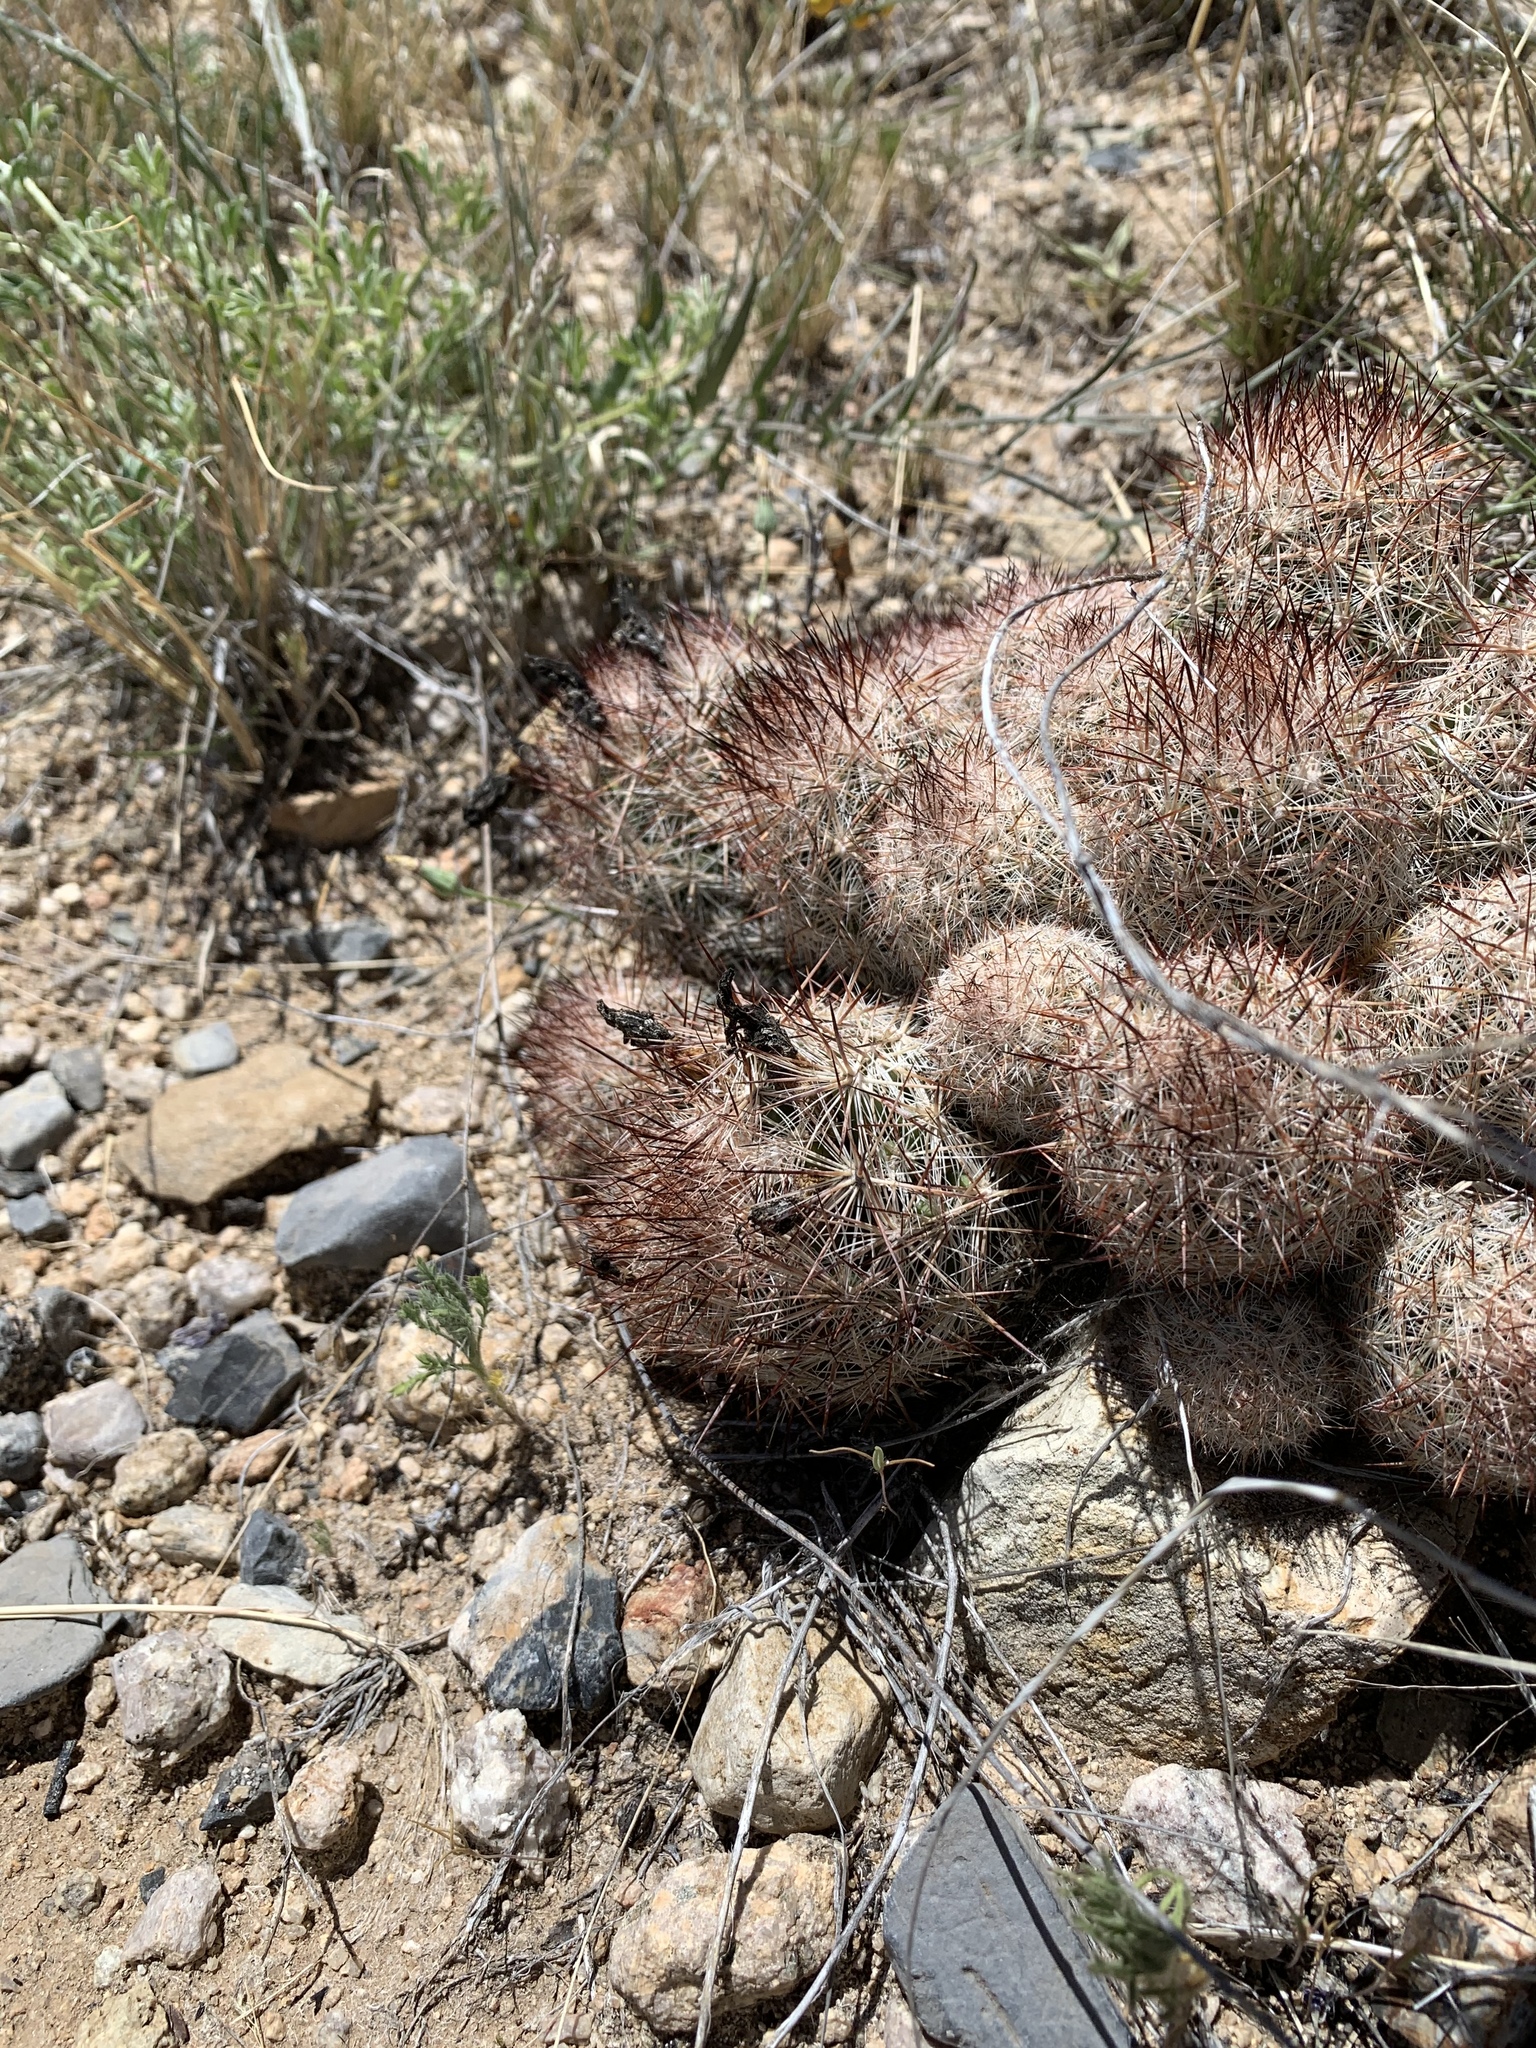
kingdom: Plantae
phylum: Tracheophyta
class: Magnoliopsida
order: Caryophyllales
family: Cactaceae
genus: Pelecyphora
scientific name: Pelecyphora sneedii
